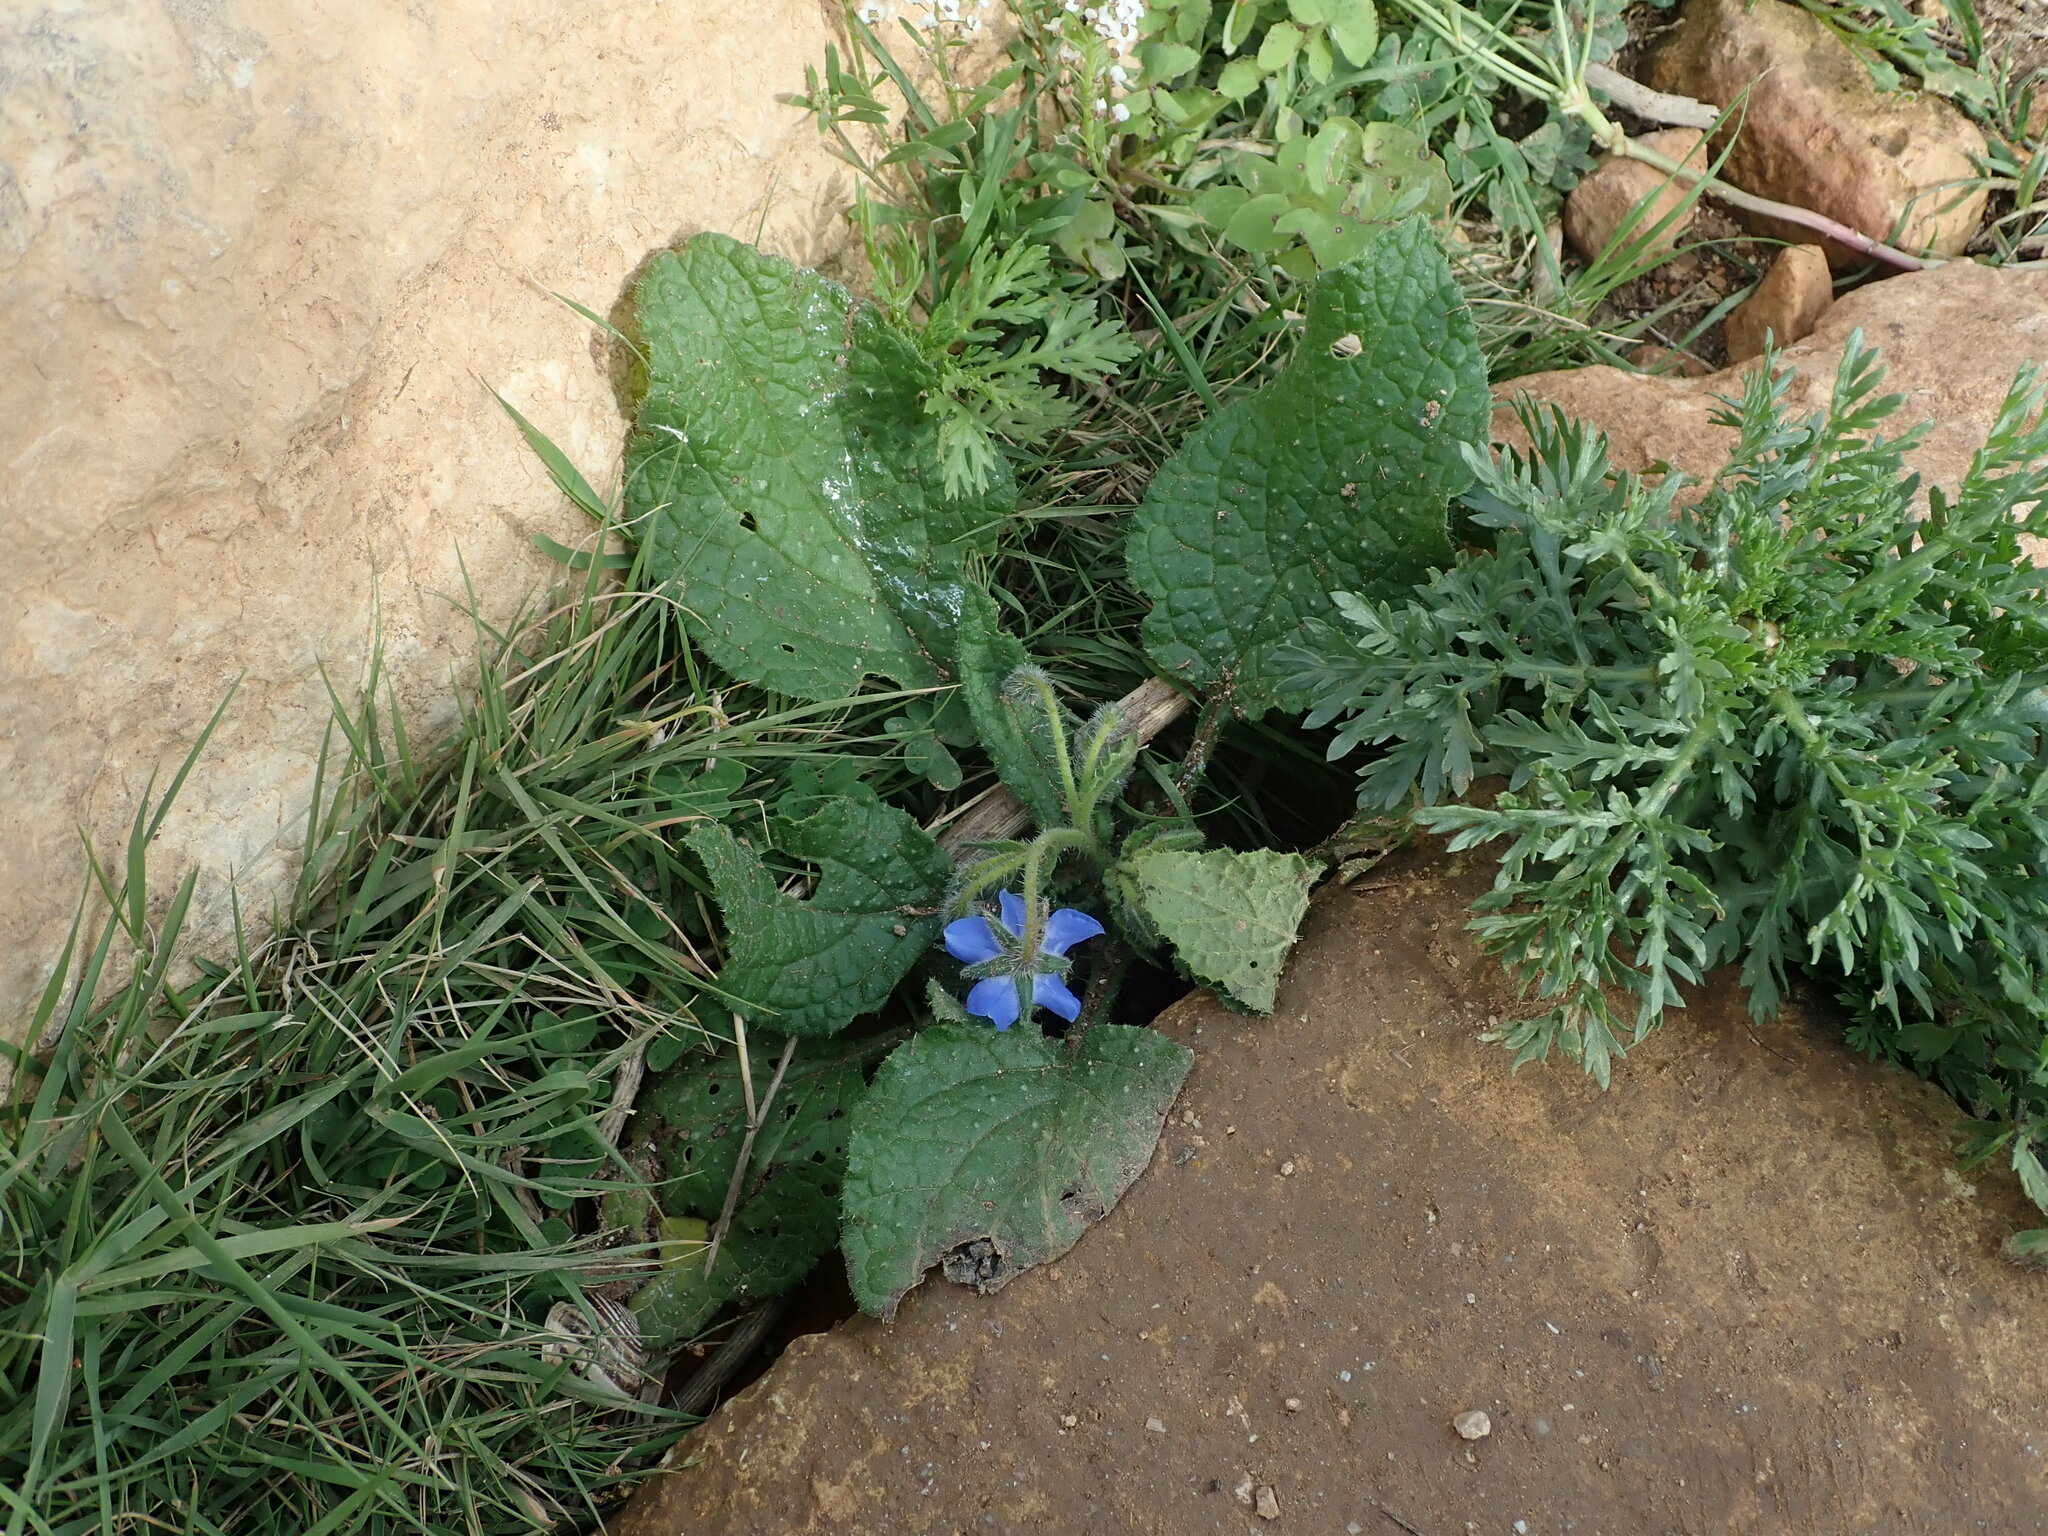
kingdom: Plantae
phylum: Tracheophyta
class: Magnoliopsida
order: Boraginales
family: Boraginaceae
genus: Borago
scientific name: Borago officinalis
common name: Borage
